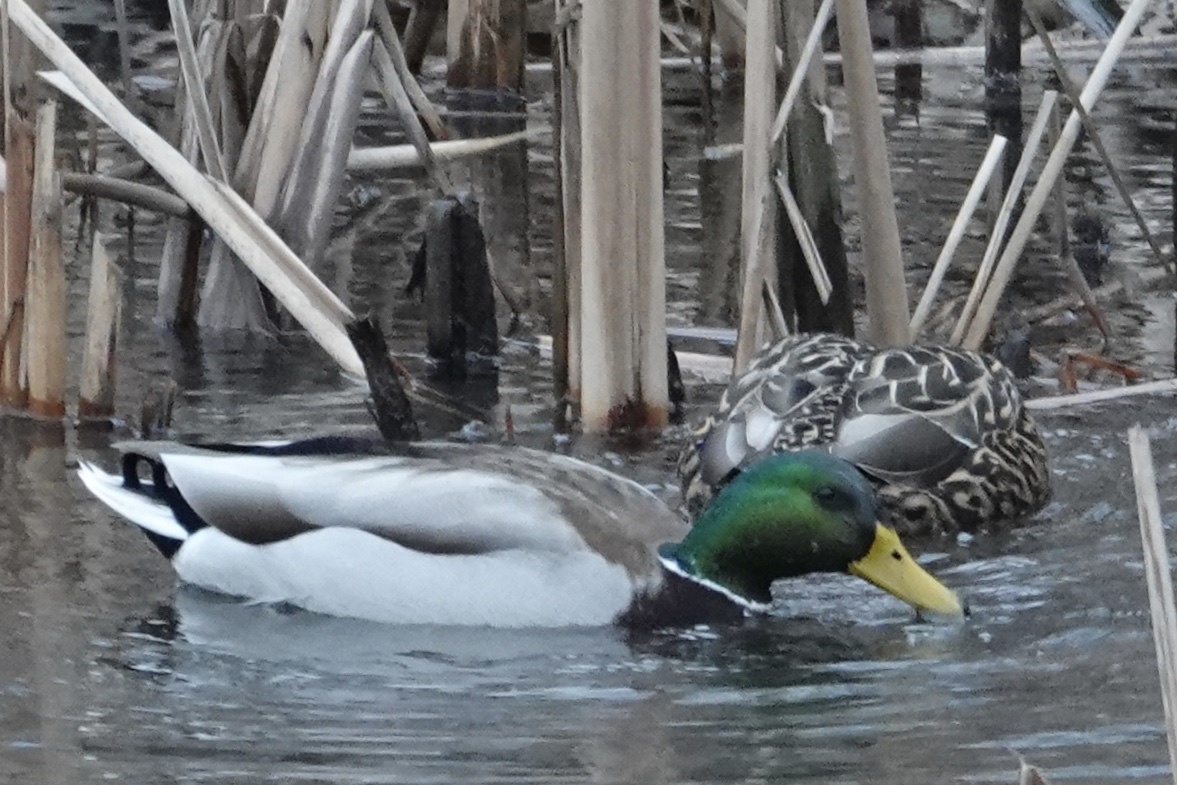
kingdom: Animalia
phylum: Chordata
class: Aves
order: Anseriformes
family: Anatidae
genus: Anas
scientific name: Anas platyrhynchos
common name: Mallard
